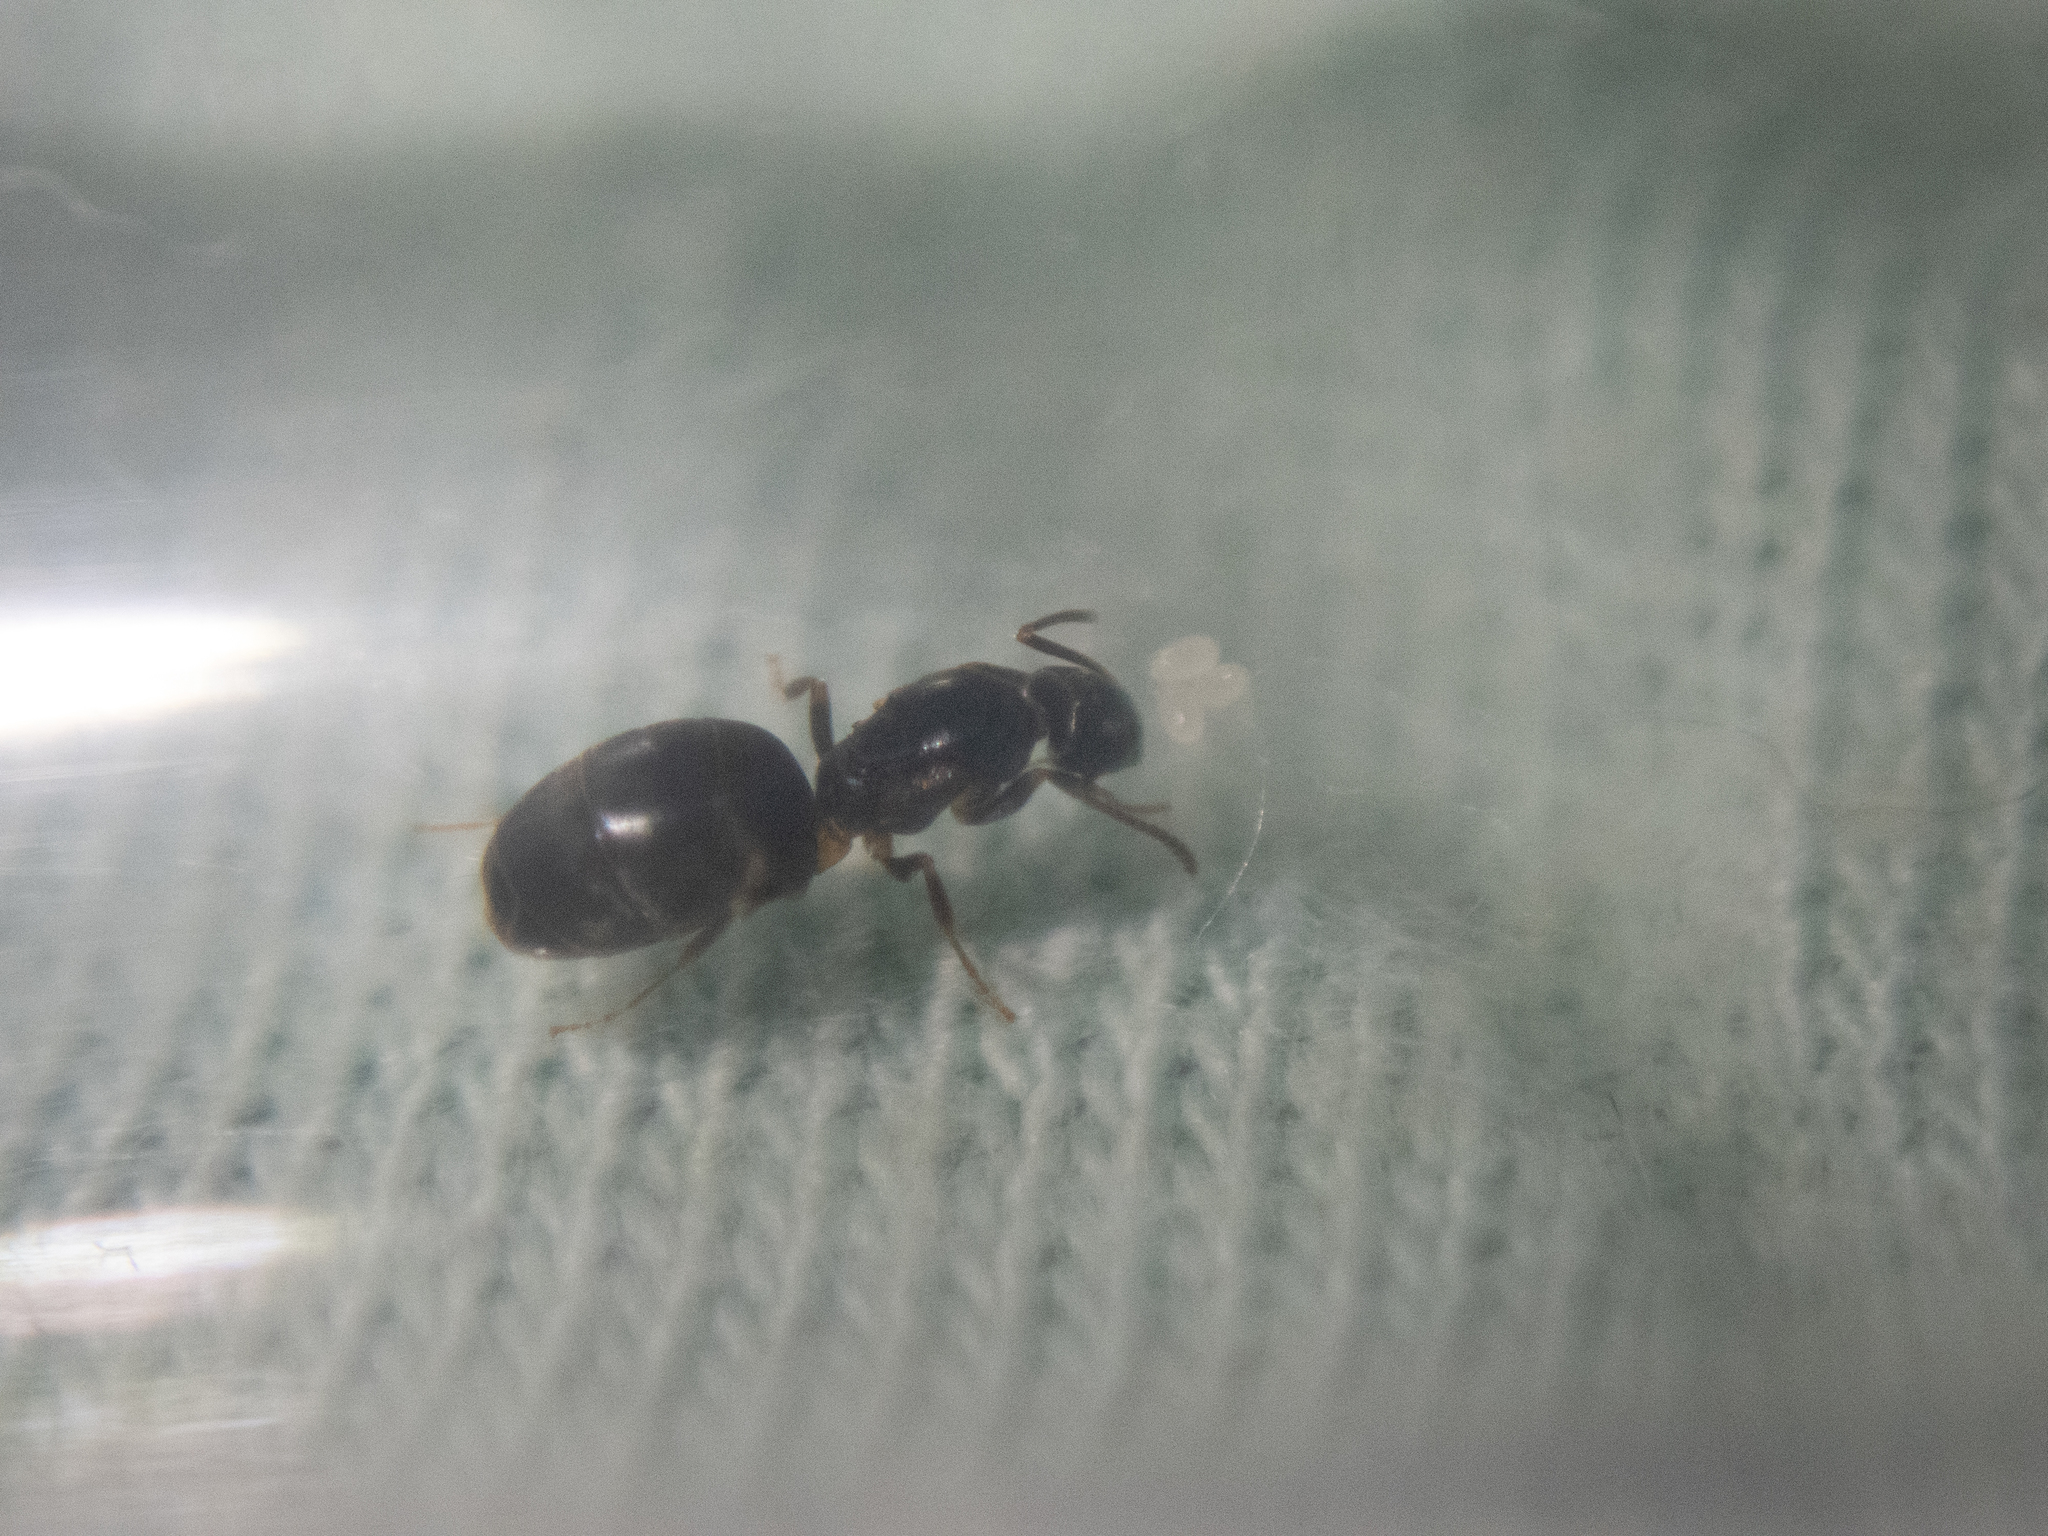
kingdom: Animalia
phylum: Arthropoda
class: Insecta
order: Hymenoptera
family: Formicidae
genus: Tapinoma
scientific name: Tapinoma sessile
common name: Odorous house ant
